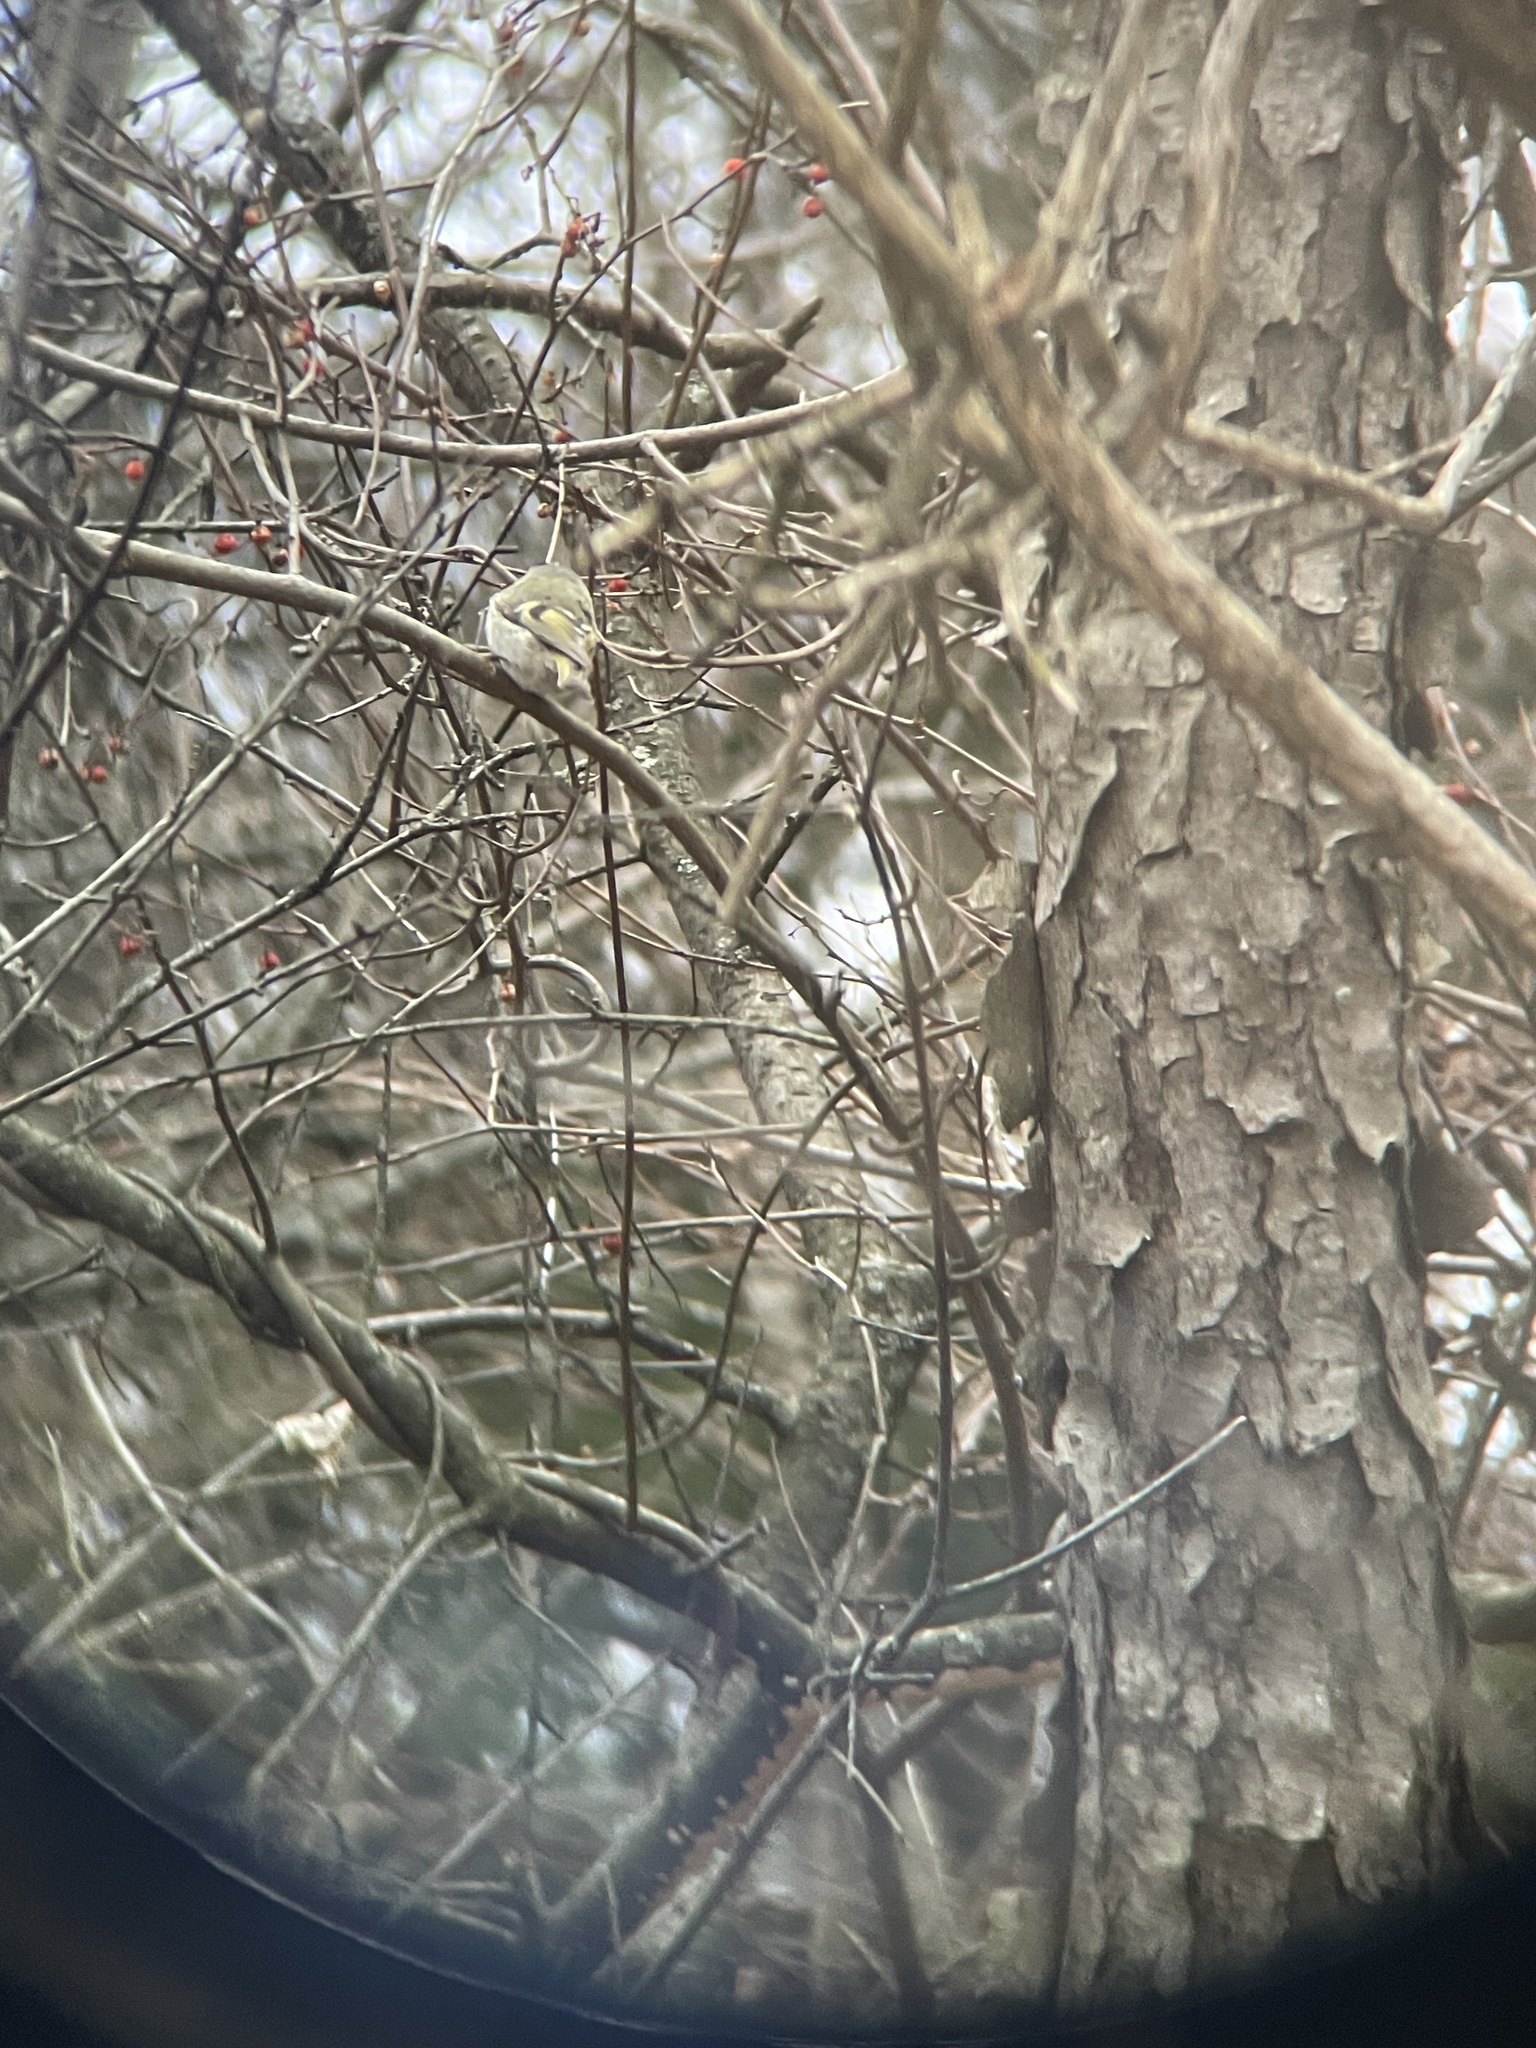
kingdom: Animalia
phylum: Chordata
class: Aves
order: Passeriformes
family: Regulidae
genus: Regulus
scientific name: Regulus satrapa
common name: Golden-crowned kinglet
